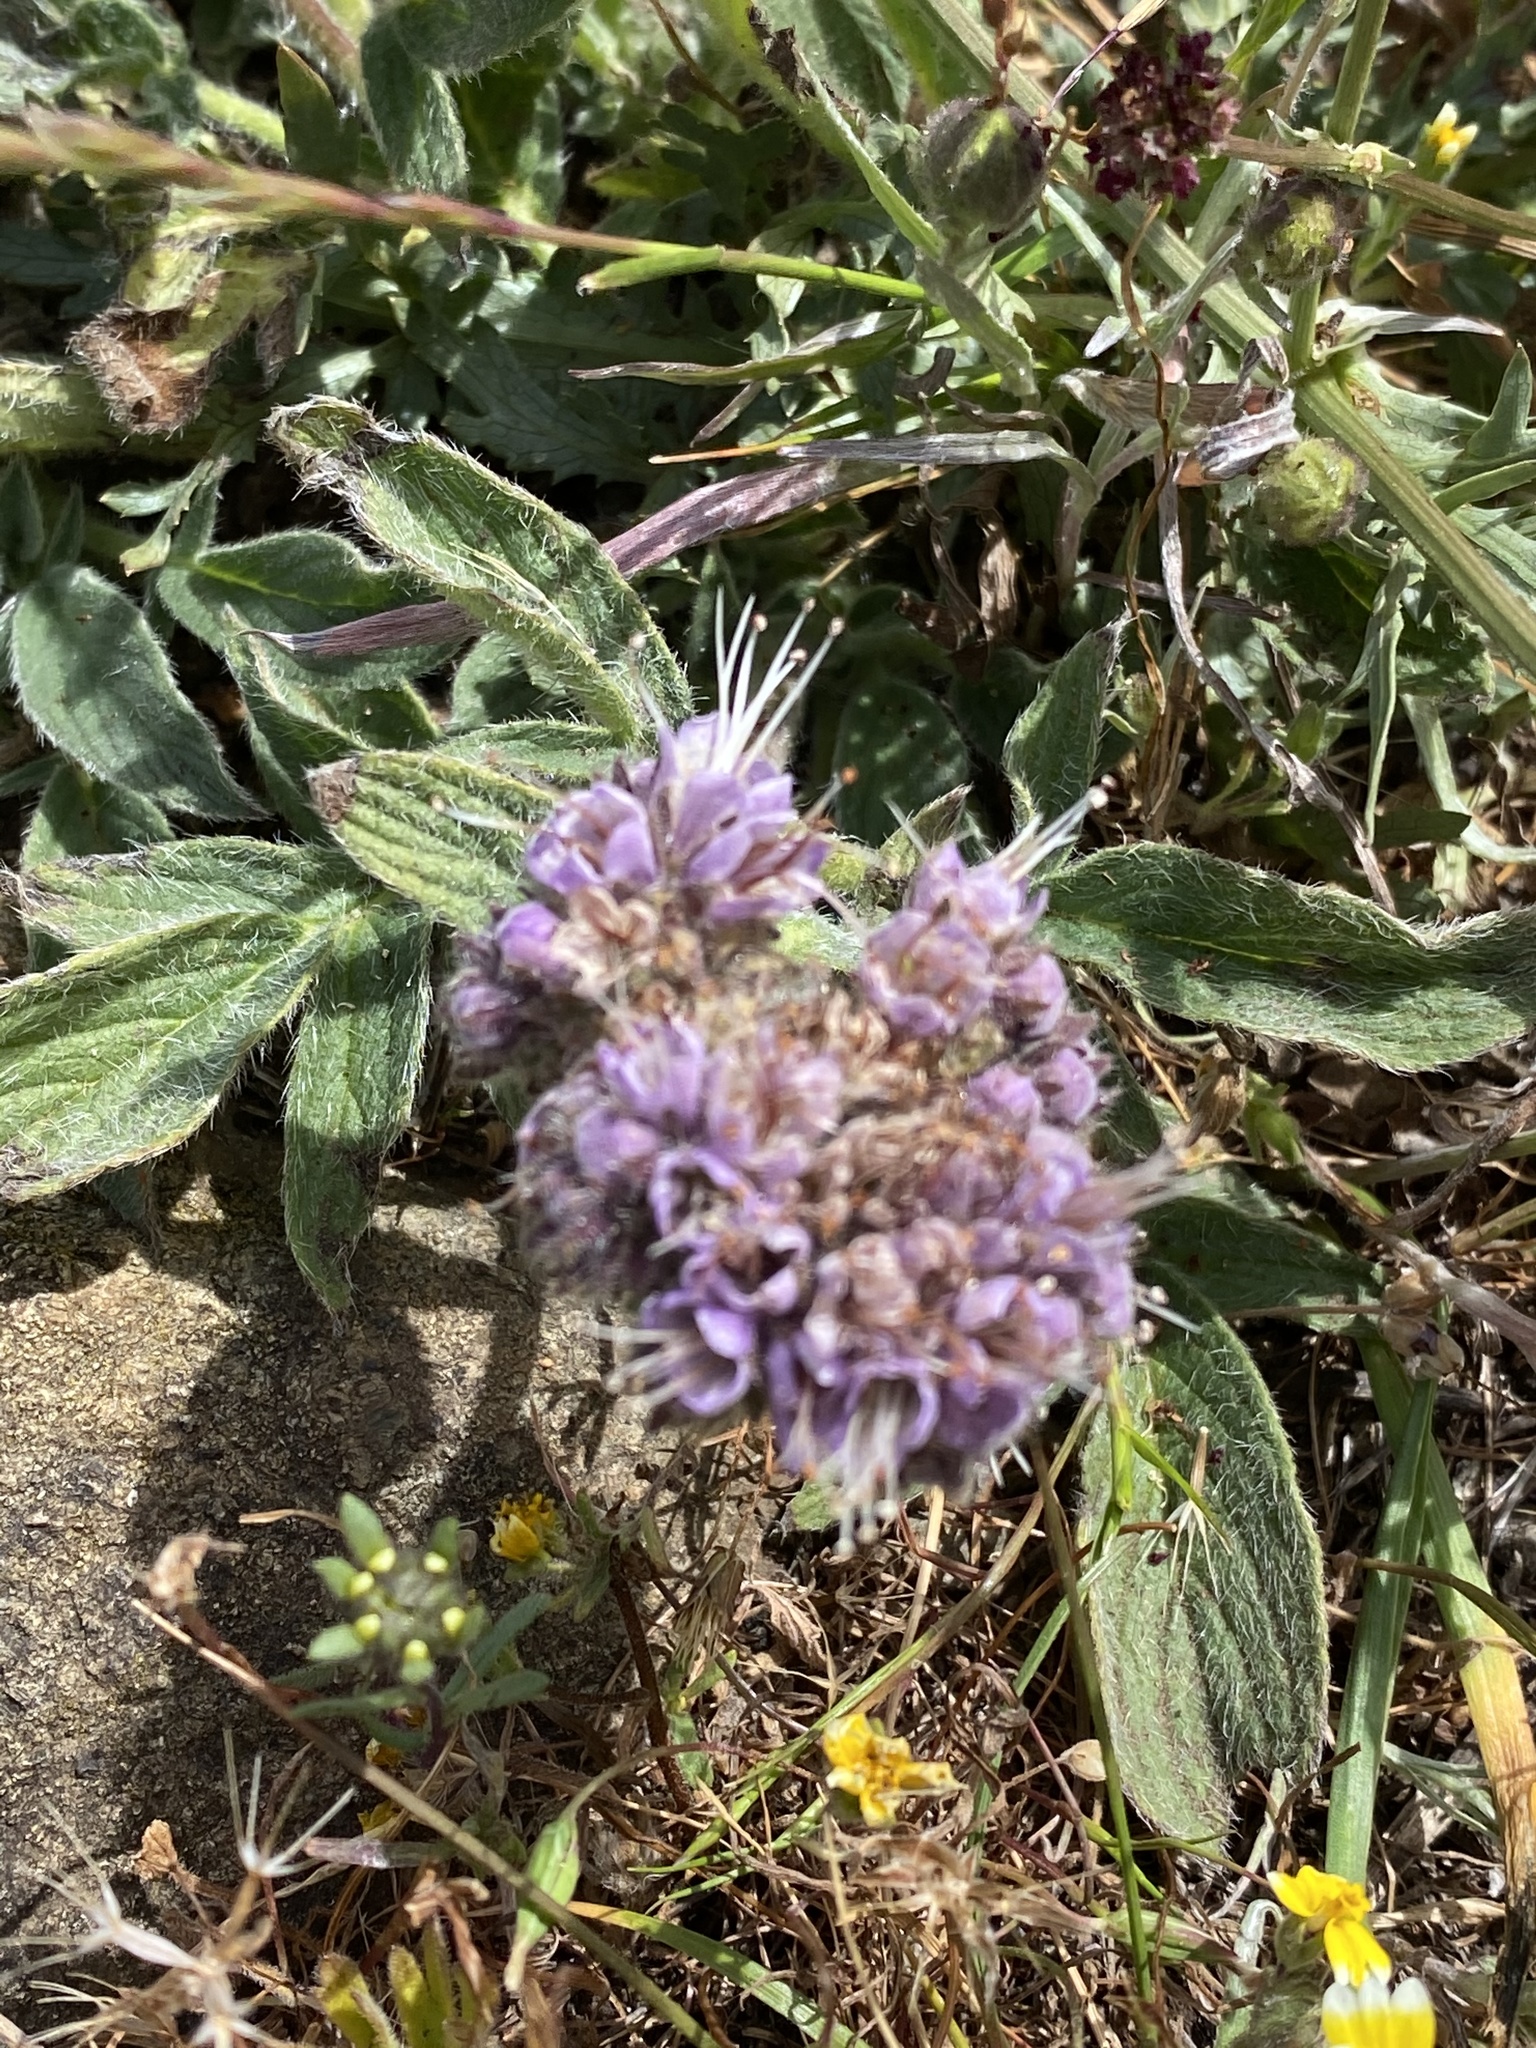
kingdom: Plantae
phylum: Tracheophyta
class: Magnoliopsida
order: Boraginales
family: Hydrophyllaceae
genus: Phacelia
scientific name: Phacelia californica
